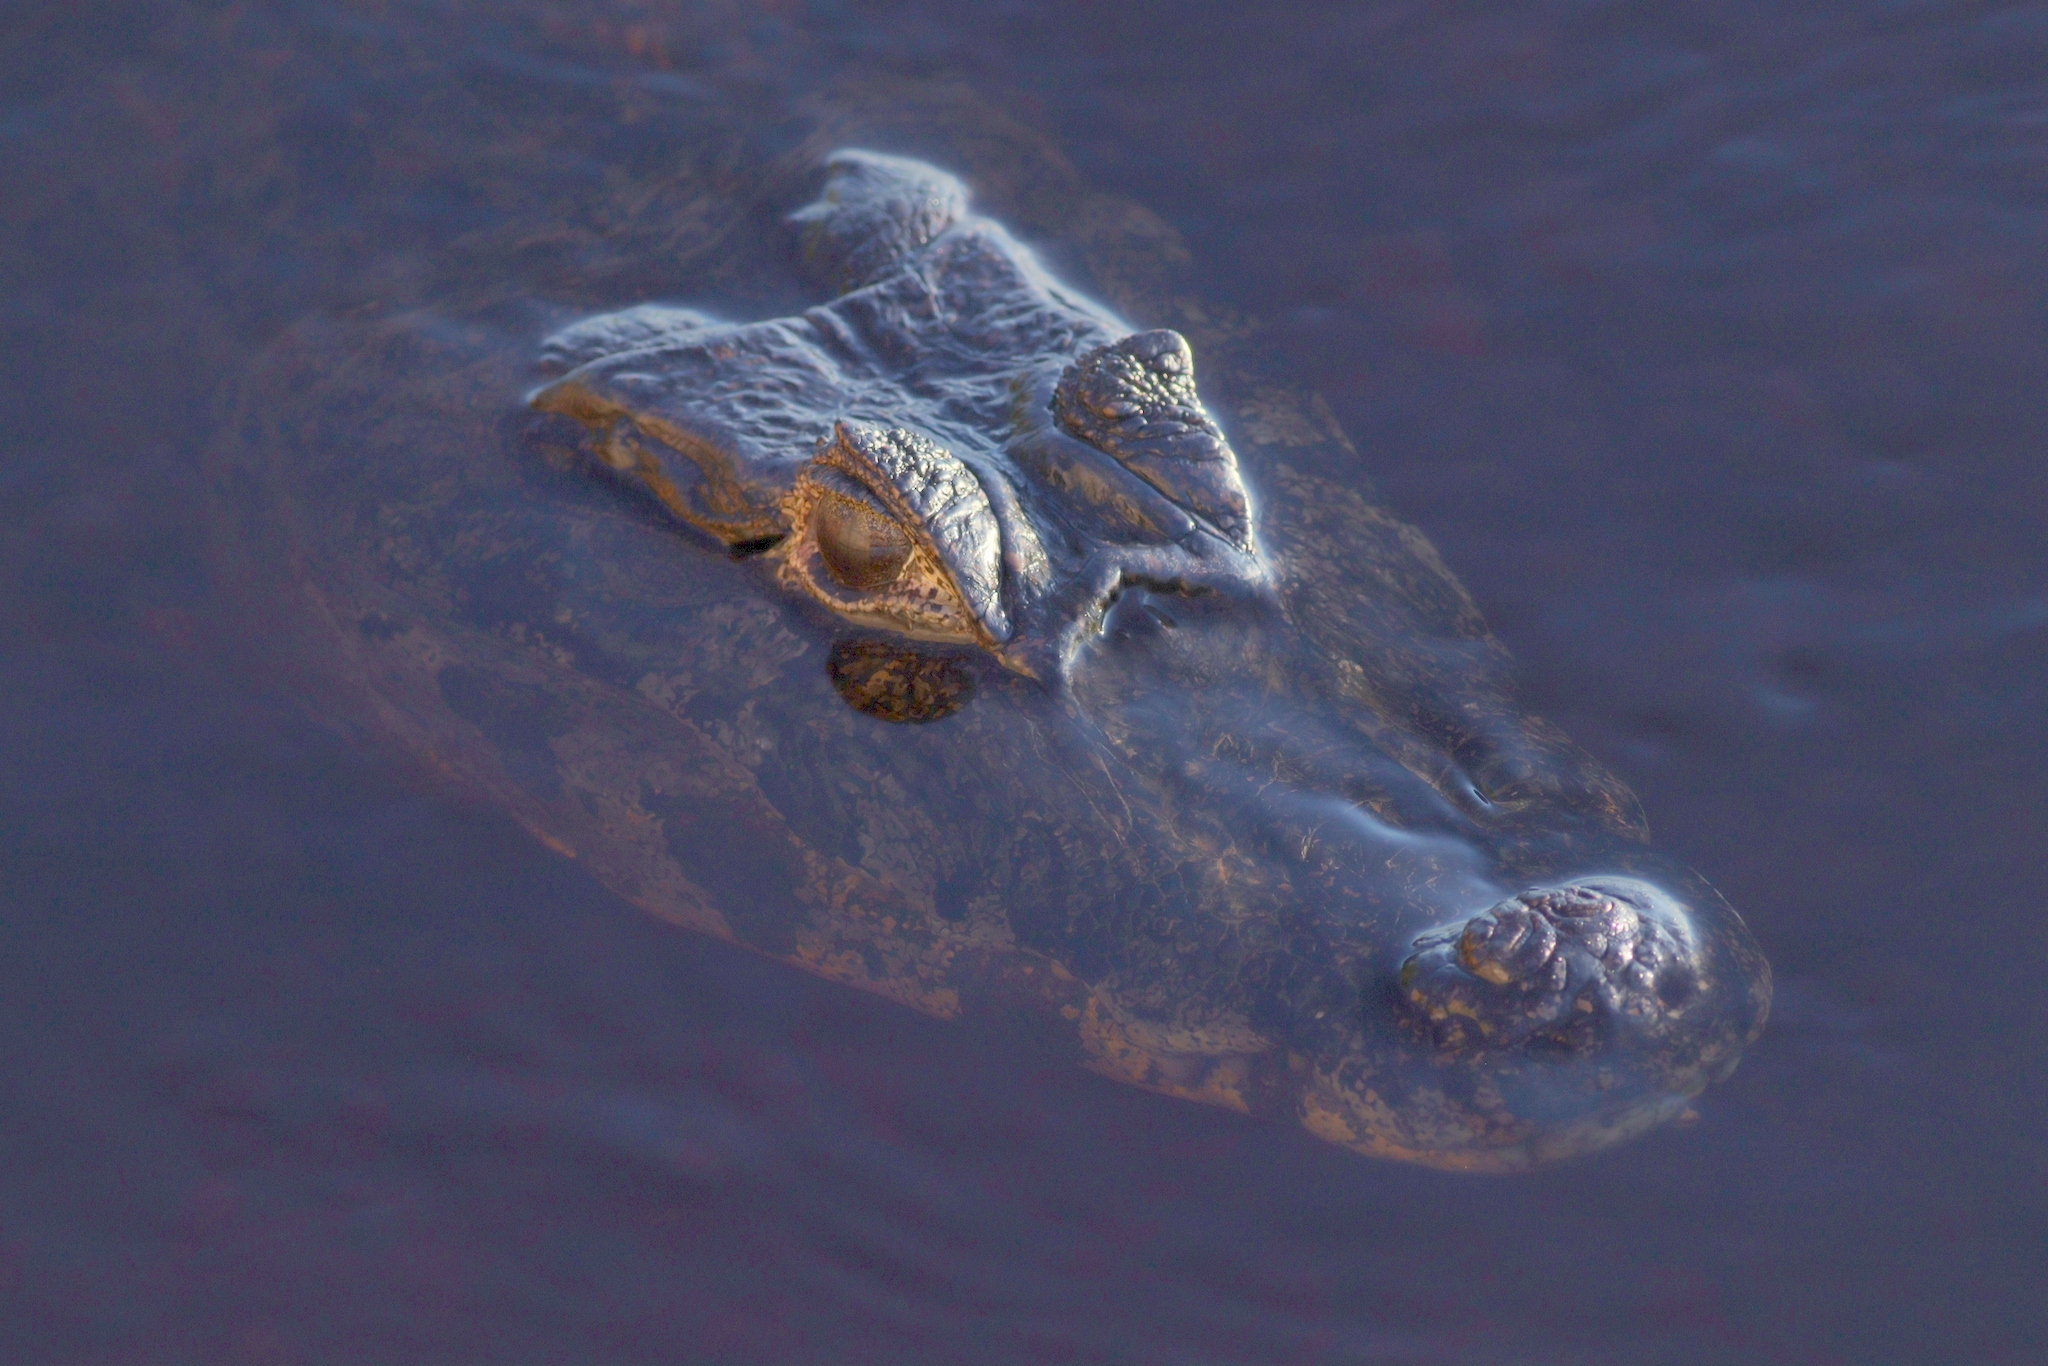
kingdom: Animalia
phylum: Chordata
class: Crocodylia
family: Alligatoridae
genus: Caiman
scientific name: Caiman yacare
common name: Yacare caiman
